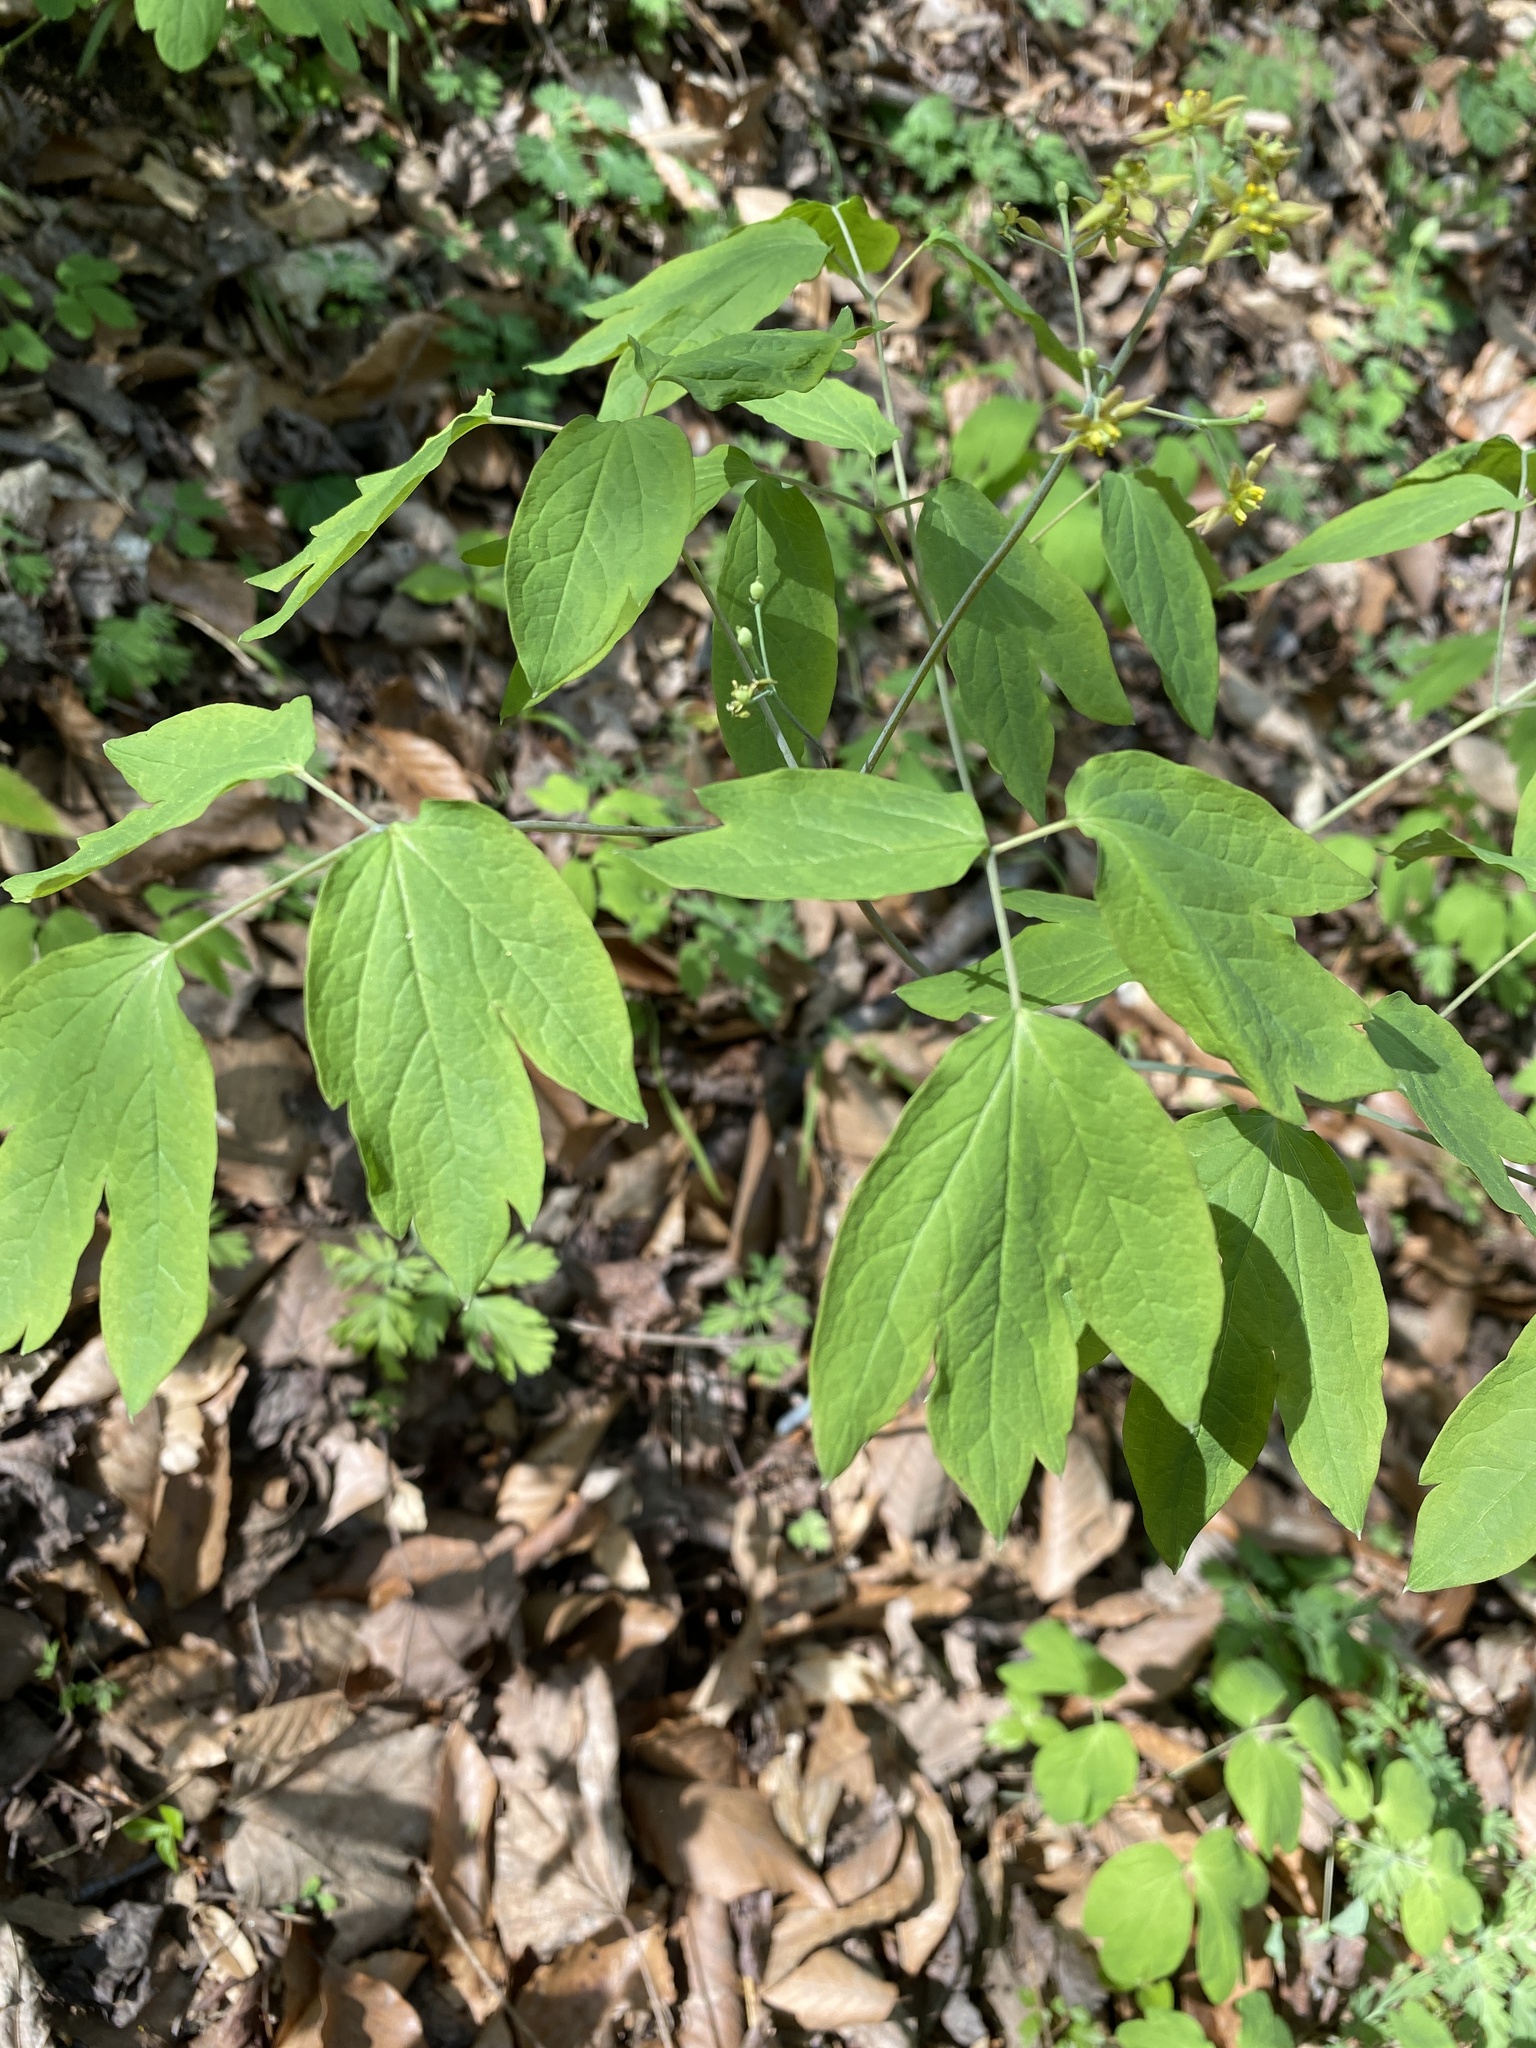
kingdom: Plantae
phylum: Tracheophyta
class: Magnoliopsida
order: Ranunculales
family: Berberidaceae
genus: Caulophyllum
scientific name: Caulophyllum thalictroides
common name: Blue cohosh
